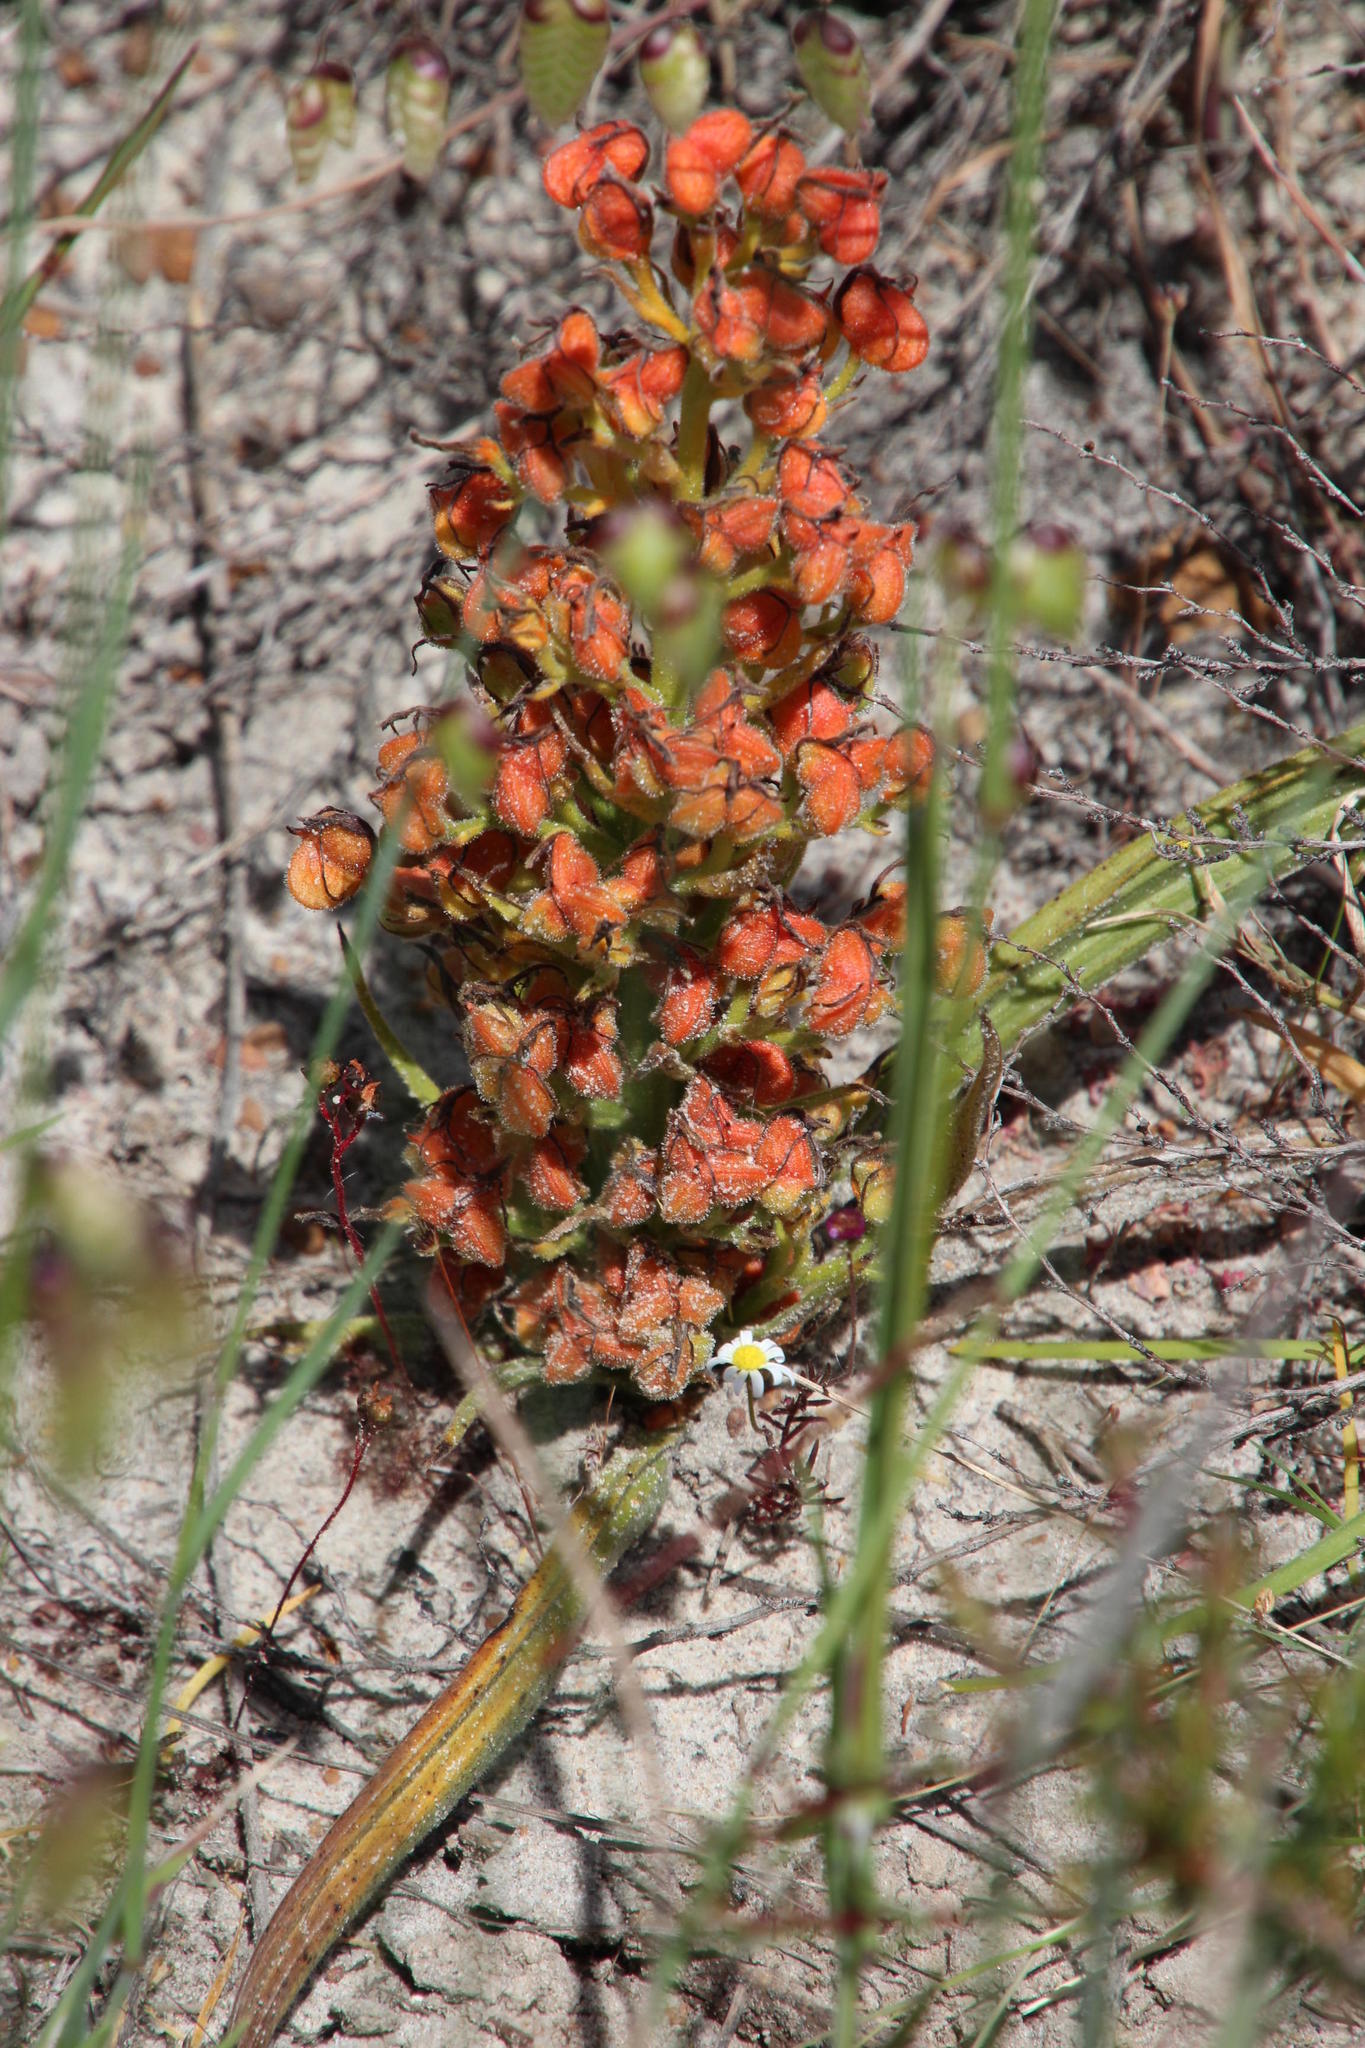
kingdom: Plantae
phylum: Tracheophyta
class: Liliopsida
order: Commelinales
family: Haemodoraceae
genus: Wachendorfia
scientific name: Wachendorfia multiflora
